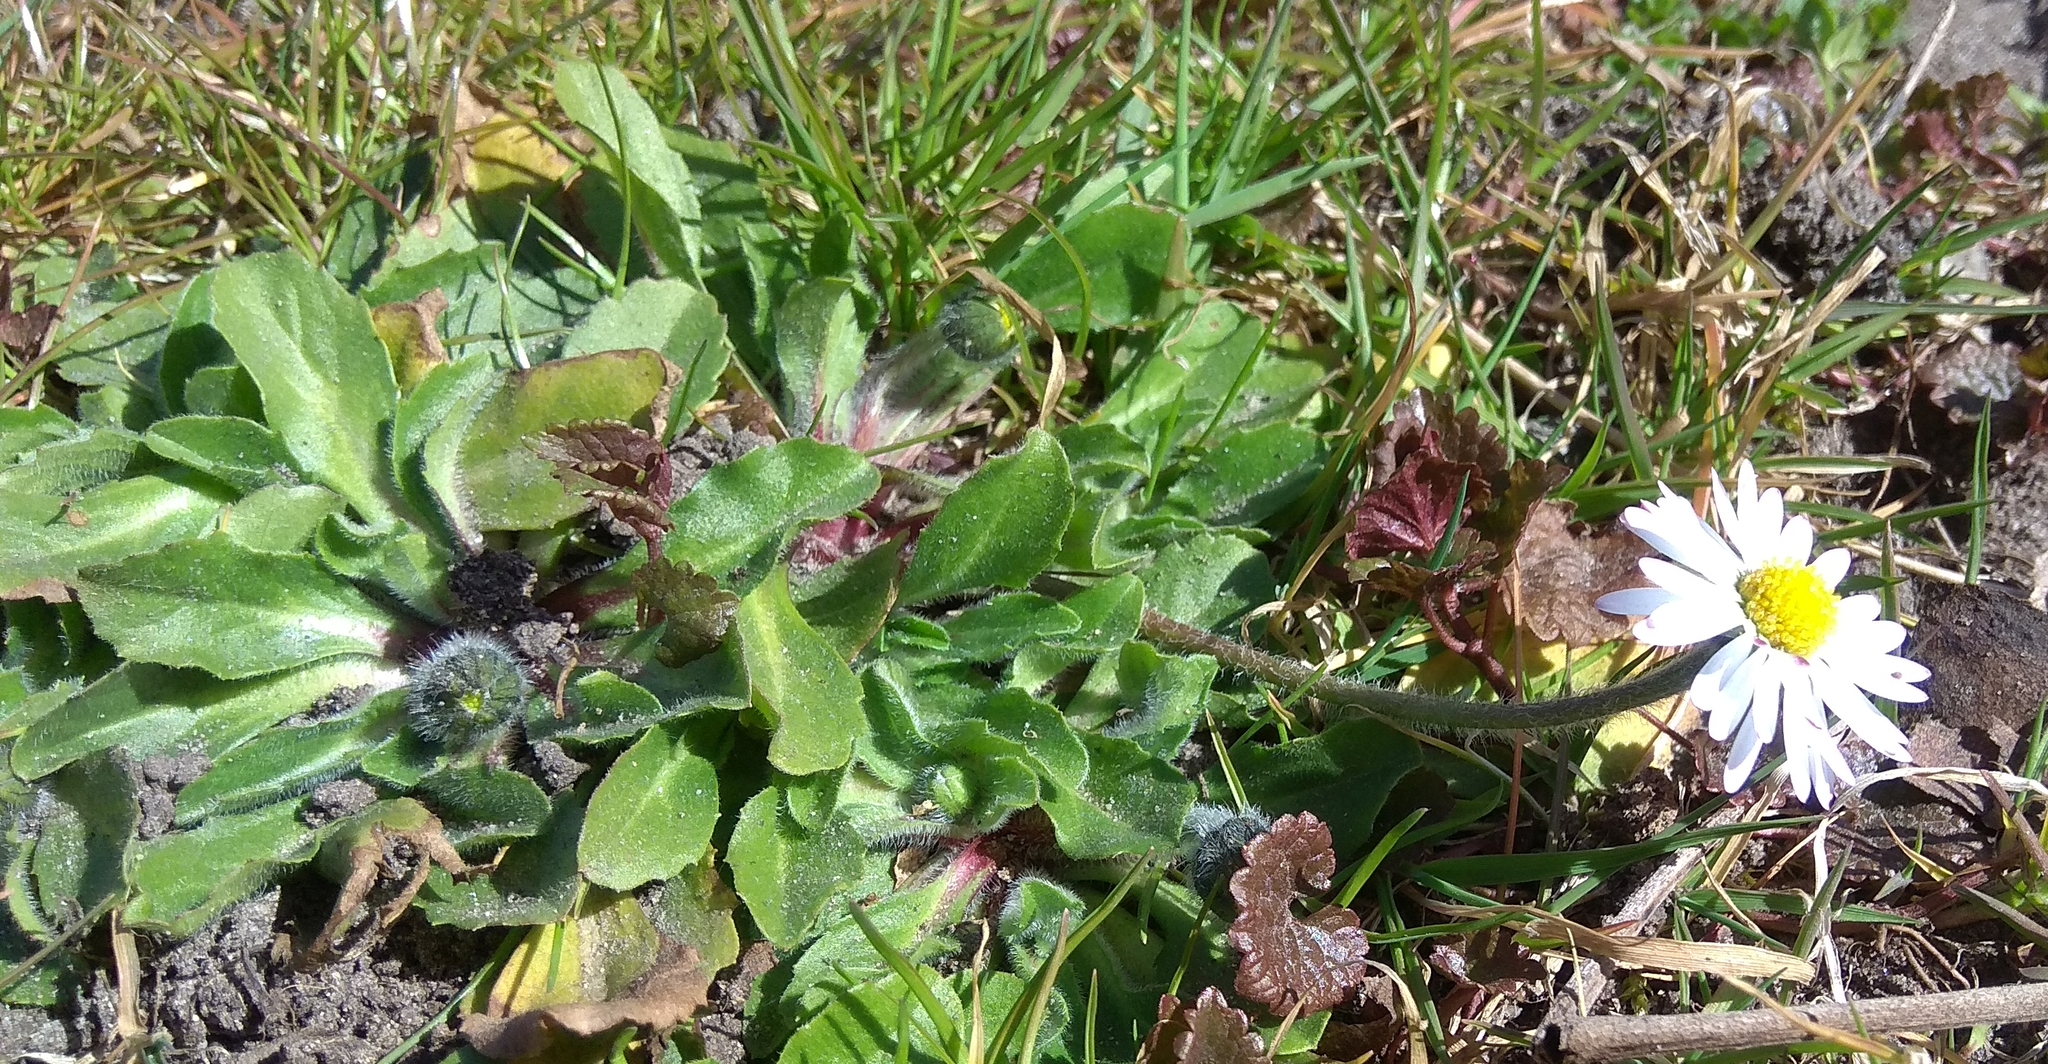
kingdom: Plantae
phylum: Tracheophyta
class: Magnoliopsida
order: Asterales
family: Asteraceae
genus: Bellis
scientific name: Bellis perennis
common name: Lawndaisy
